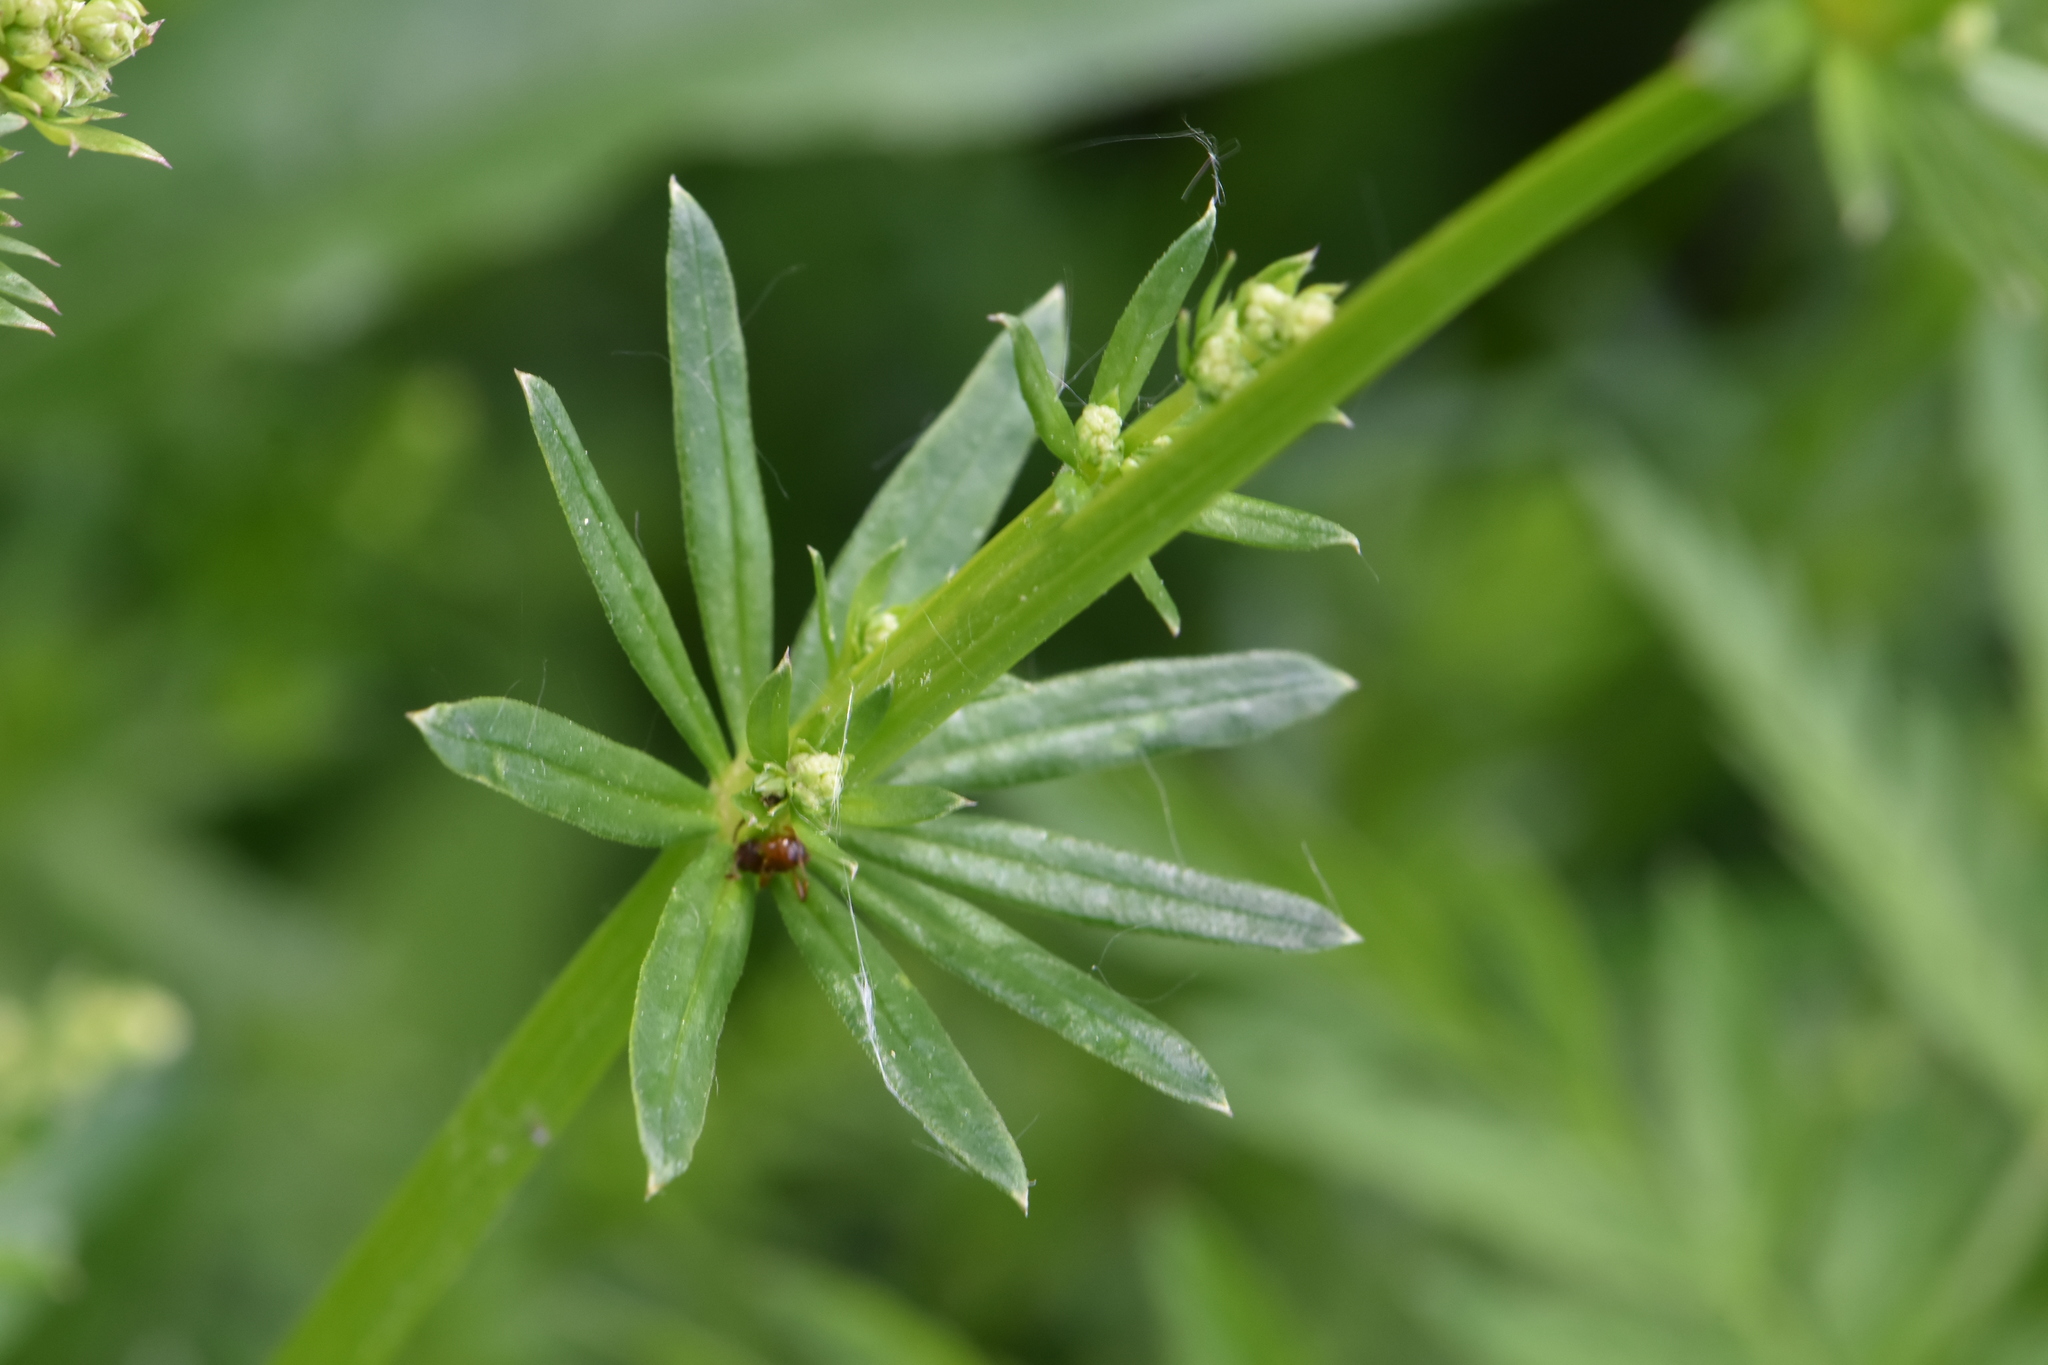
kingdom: Plantae
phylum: Tracheophyta
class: Magnoliopsida
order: Gentianales
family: Rubiaceae
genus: Galium
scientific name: Galium mollugo
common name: Hedge bedstraw
